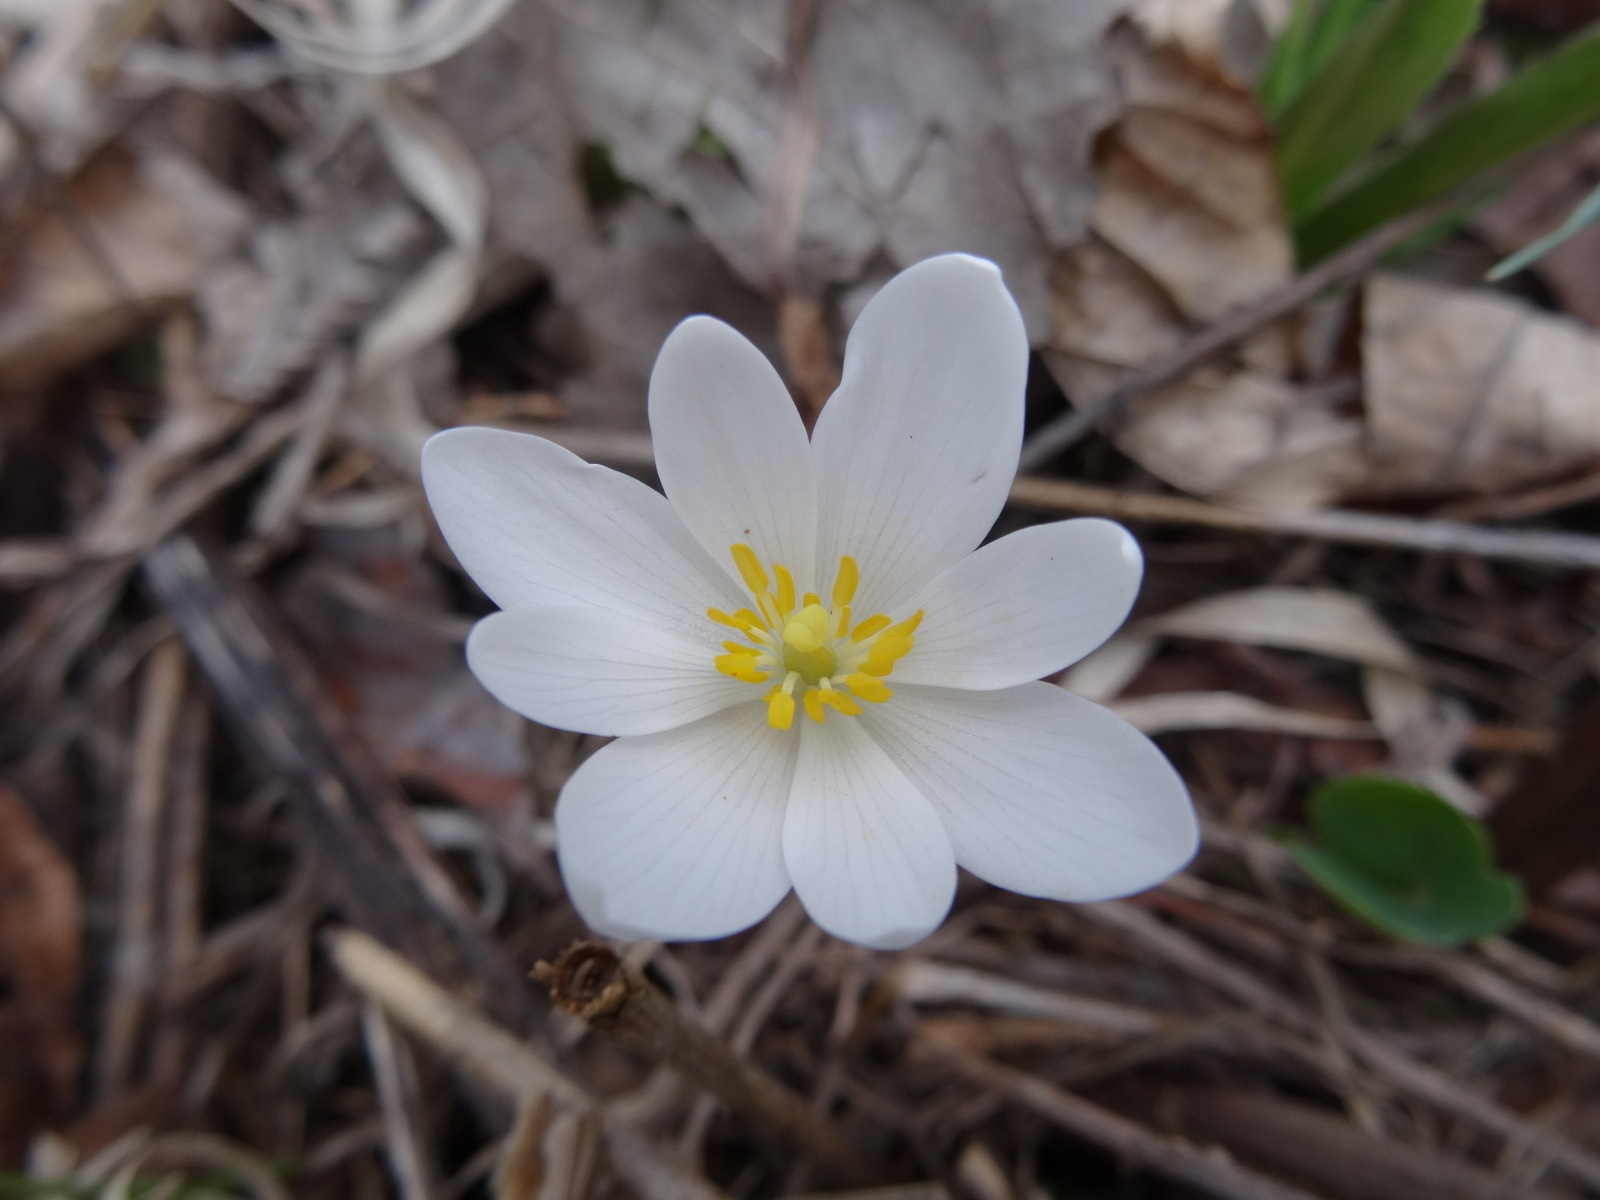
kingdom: Plantae
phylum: Tracheophyta
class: Magnoliopsida
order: Ranunculales
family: Papaveraceae
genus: Sanguinaria
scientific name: Sanguinaria canadensis
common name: Bloodroot
